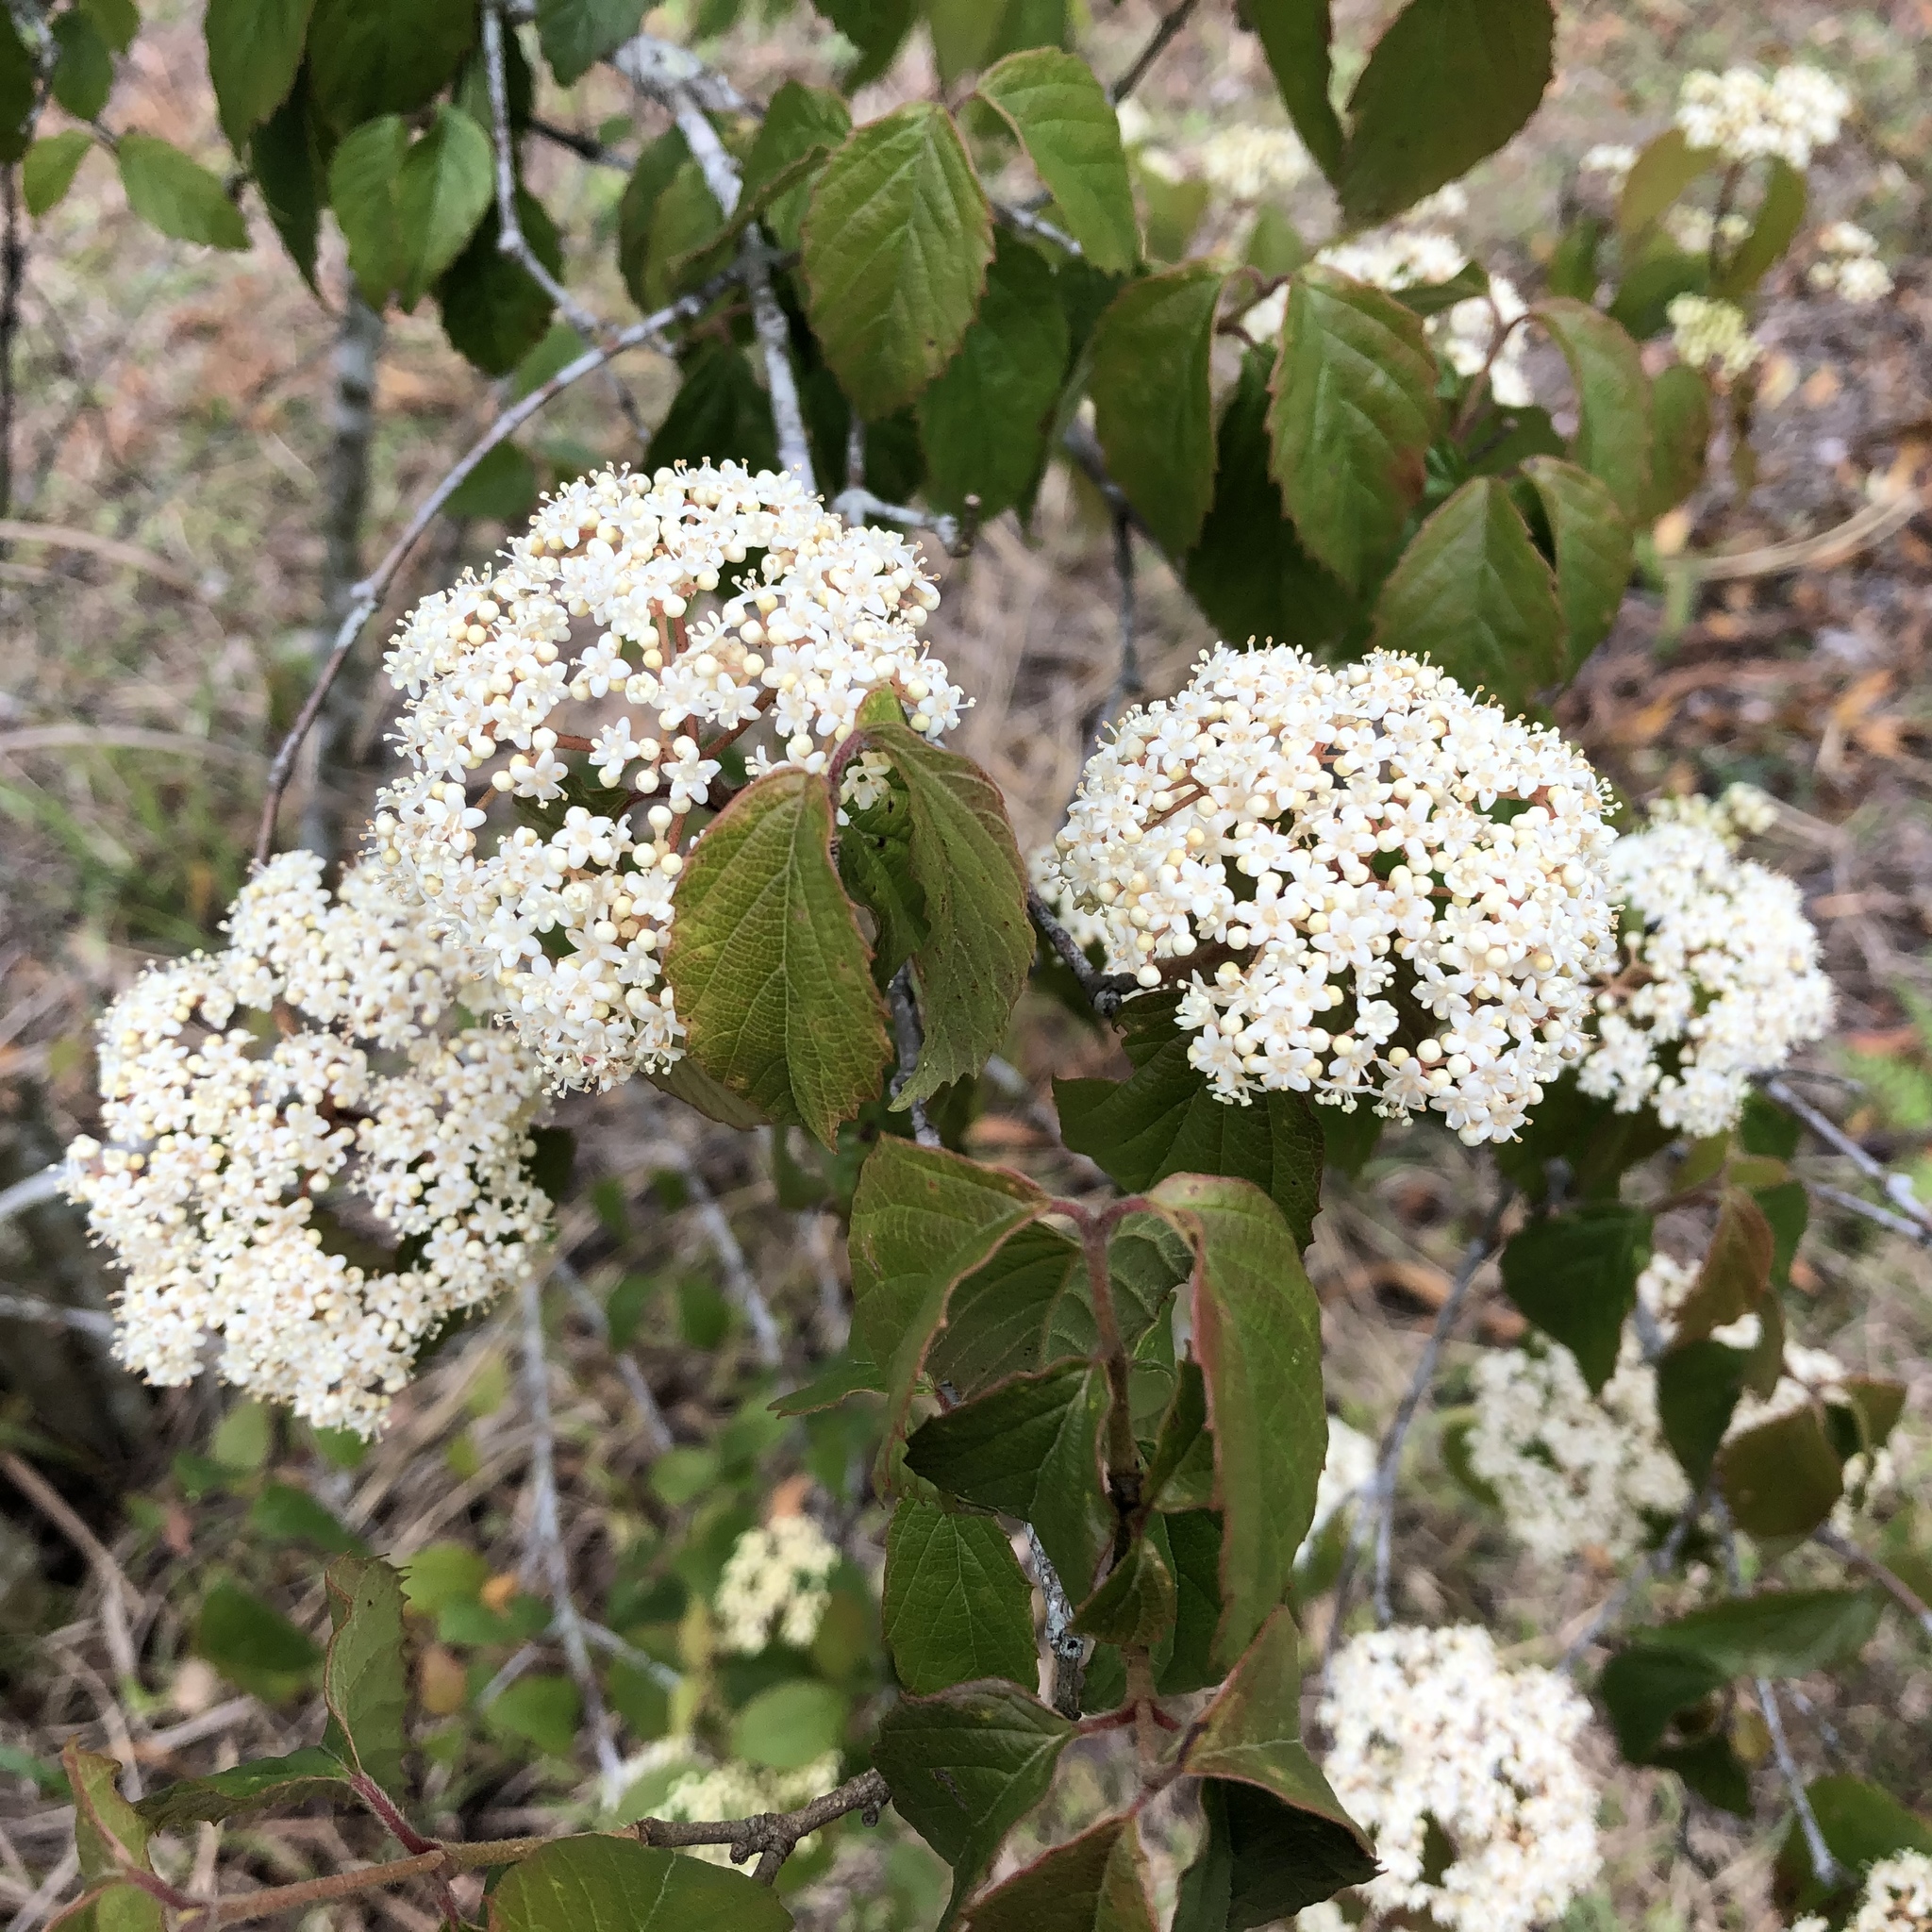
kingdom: Plantae
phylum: Tracheophyta
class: Magnoliopsida
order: Dipsacales
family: Viburnaceae
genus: Viburnum
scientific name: Viburnum luzonicum
